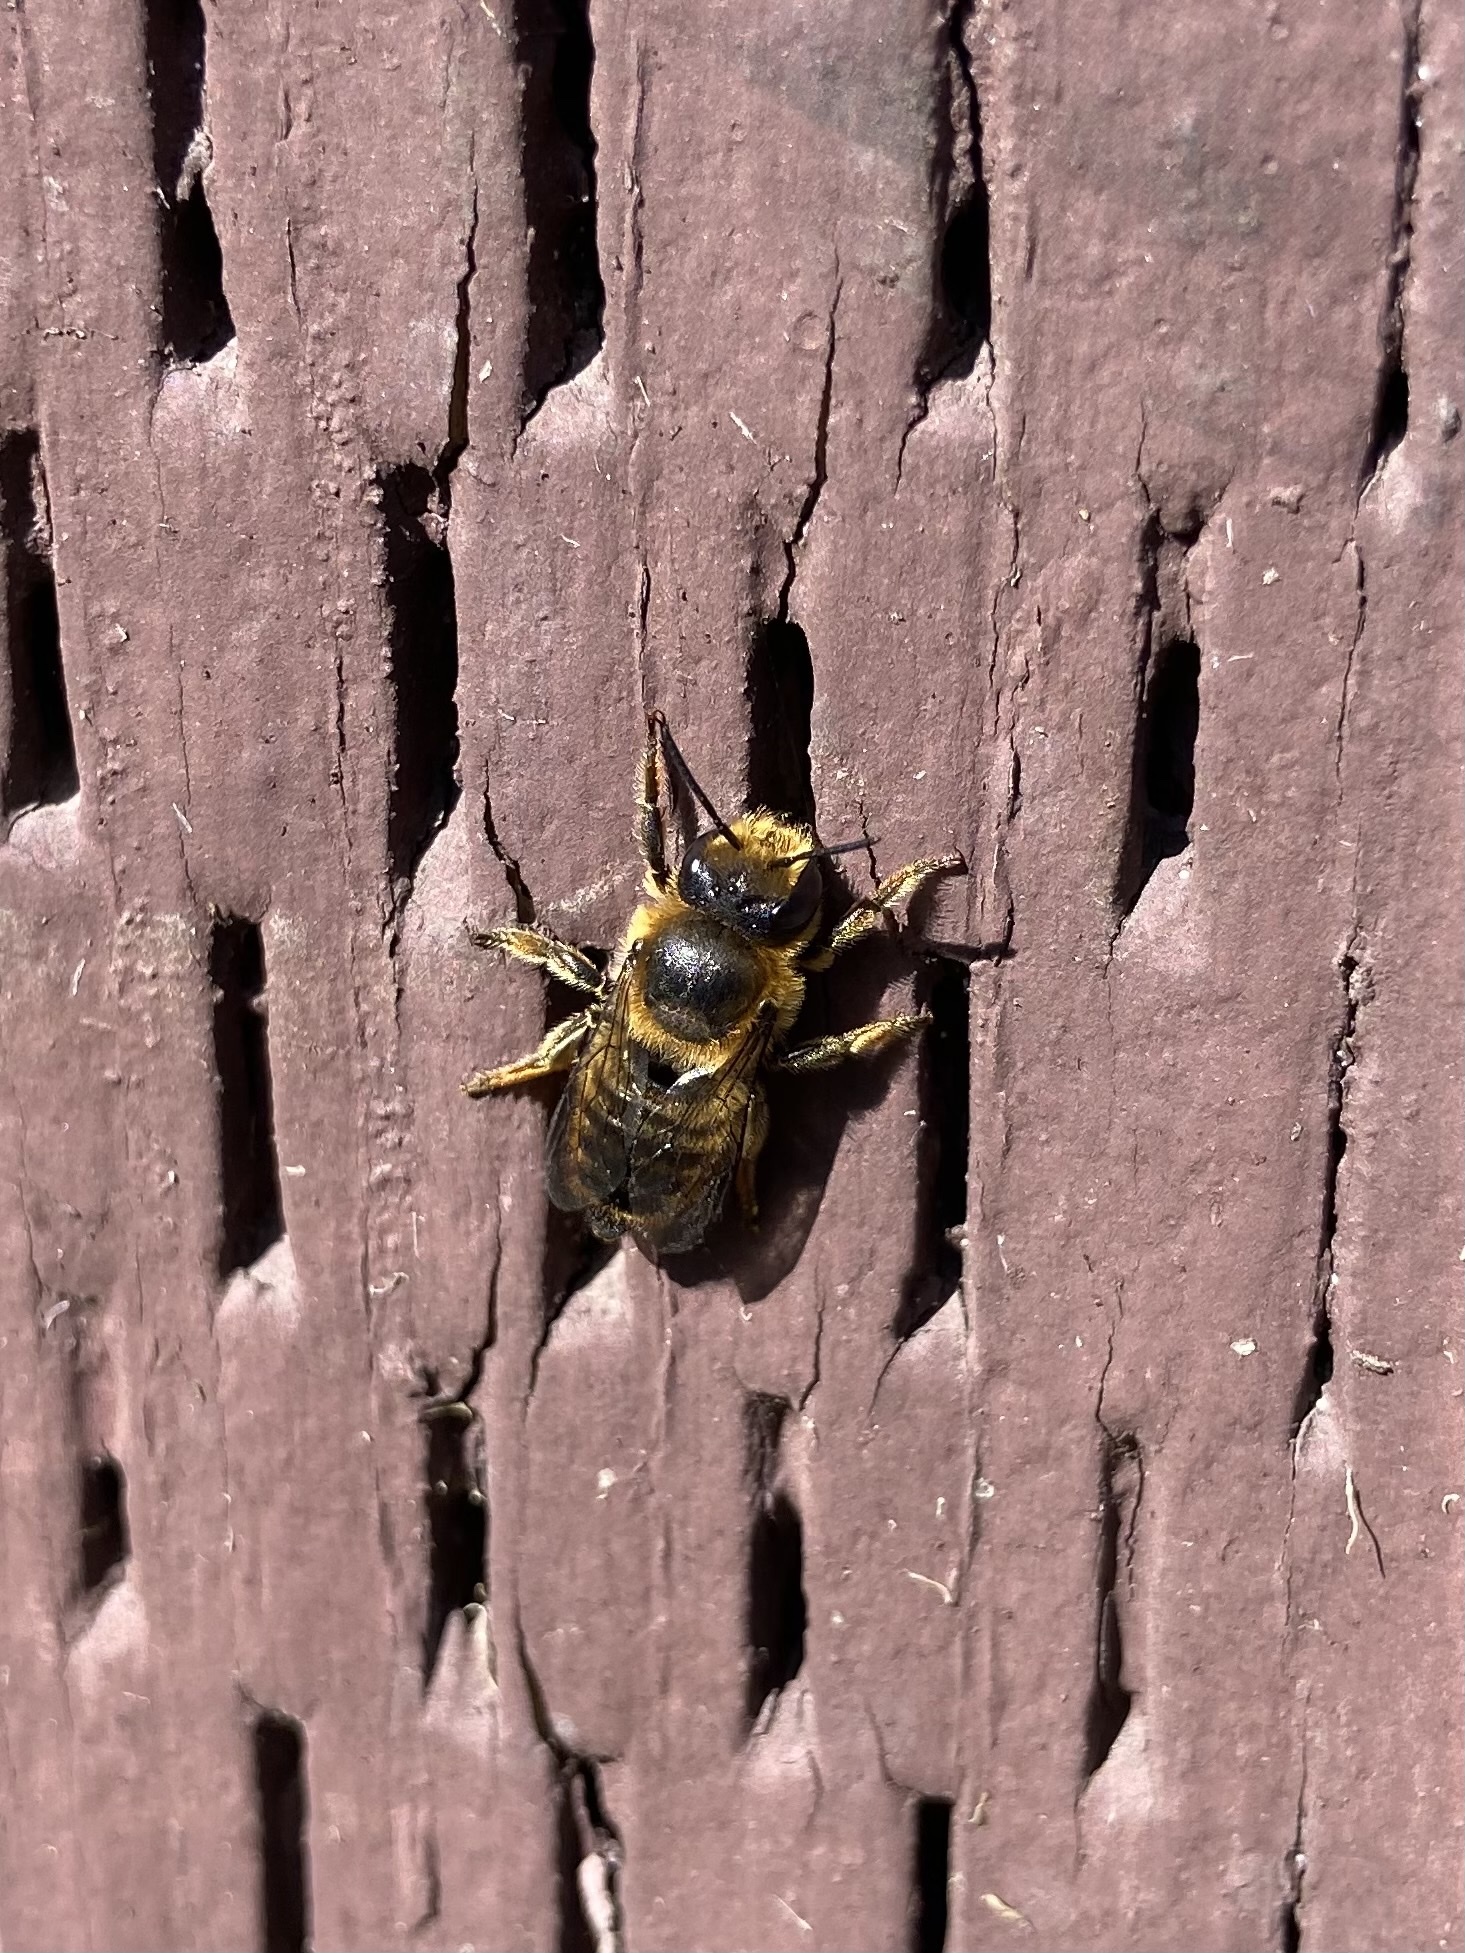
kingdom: Animalia
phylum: Arthropoda
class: Insecta
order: Hymenoptera
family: Megachilidae
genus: Megachile
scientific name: Megachile perihirta
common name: Western leafcutter
